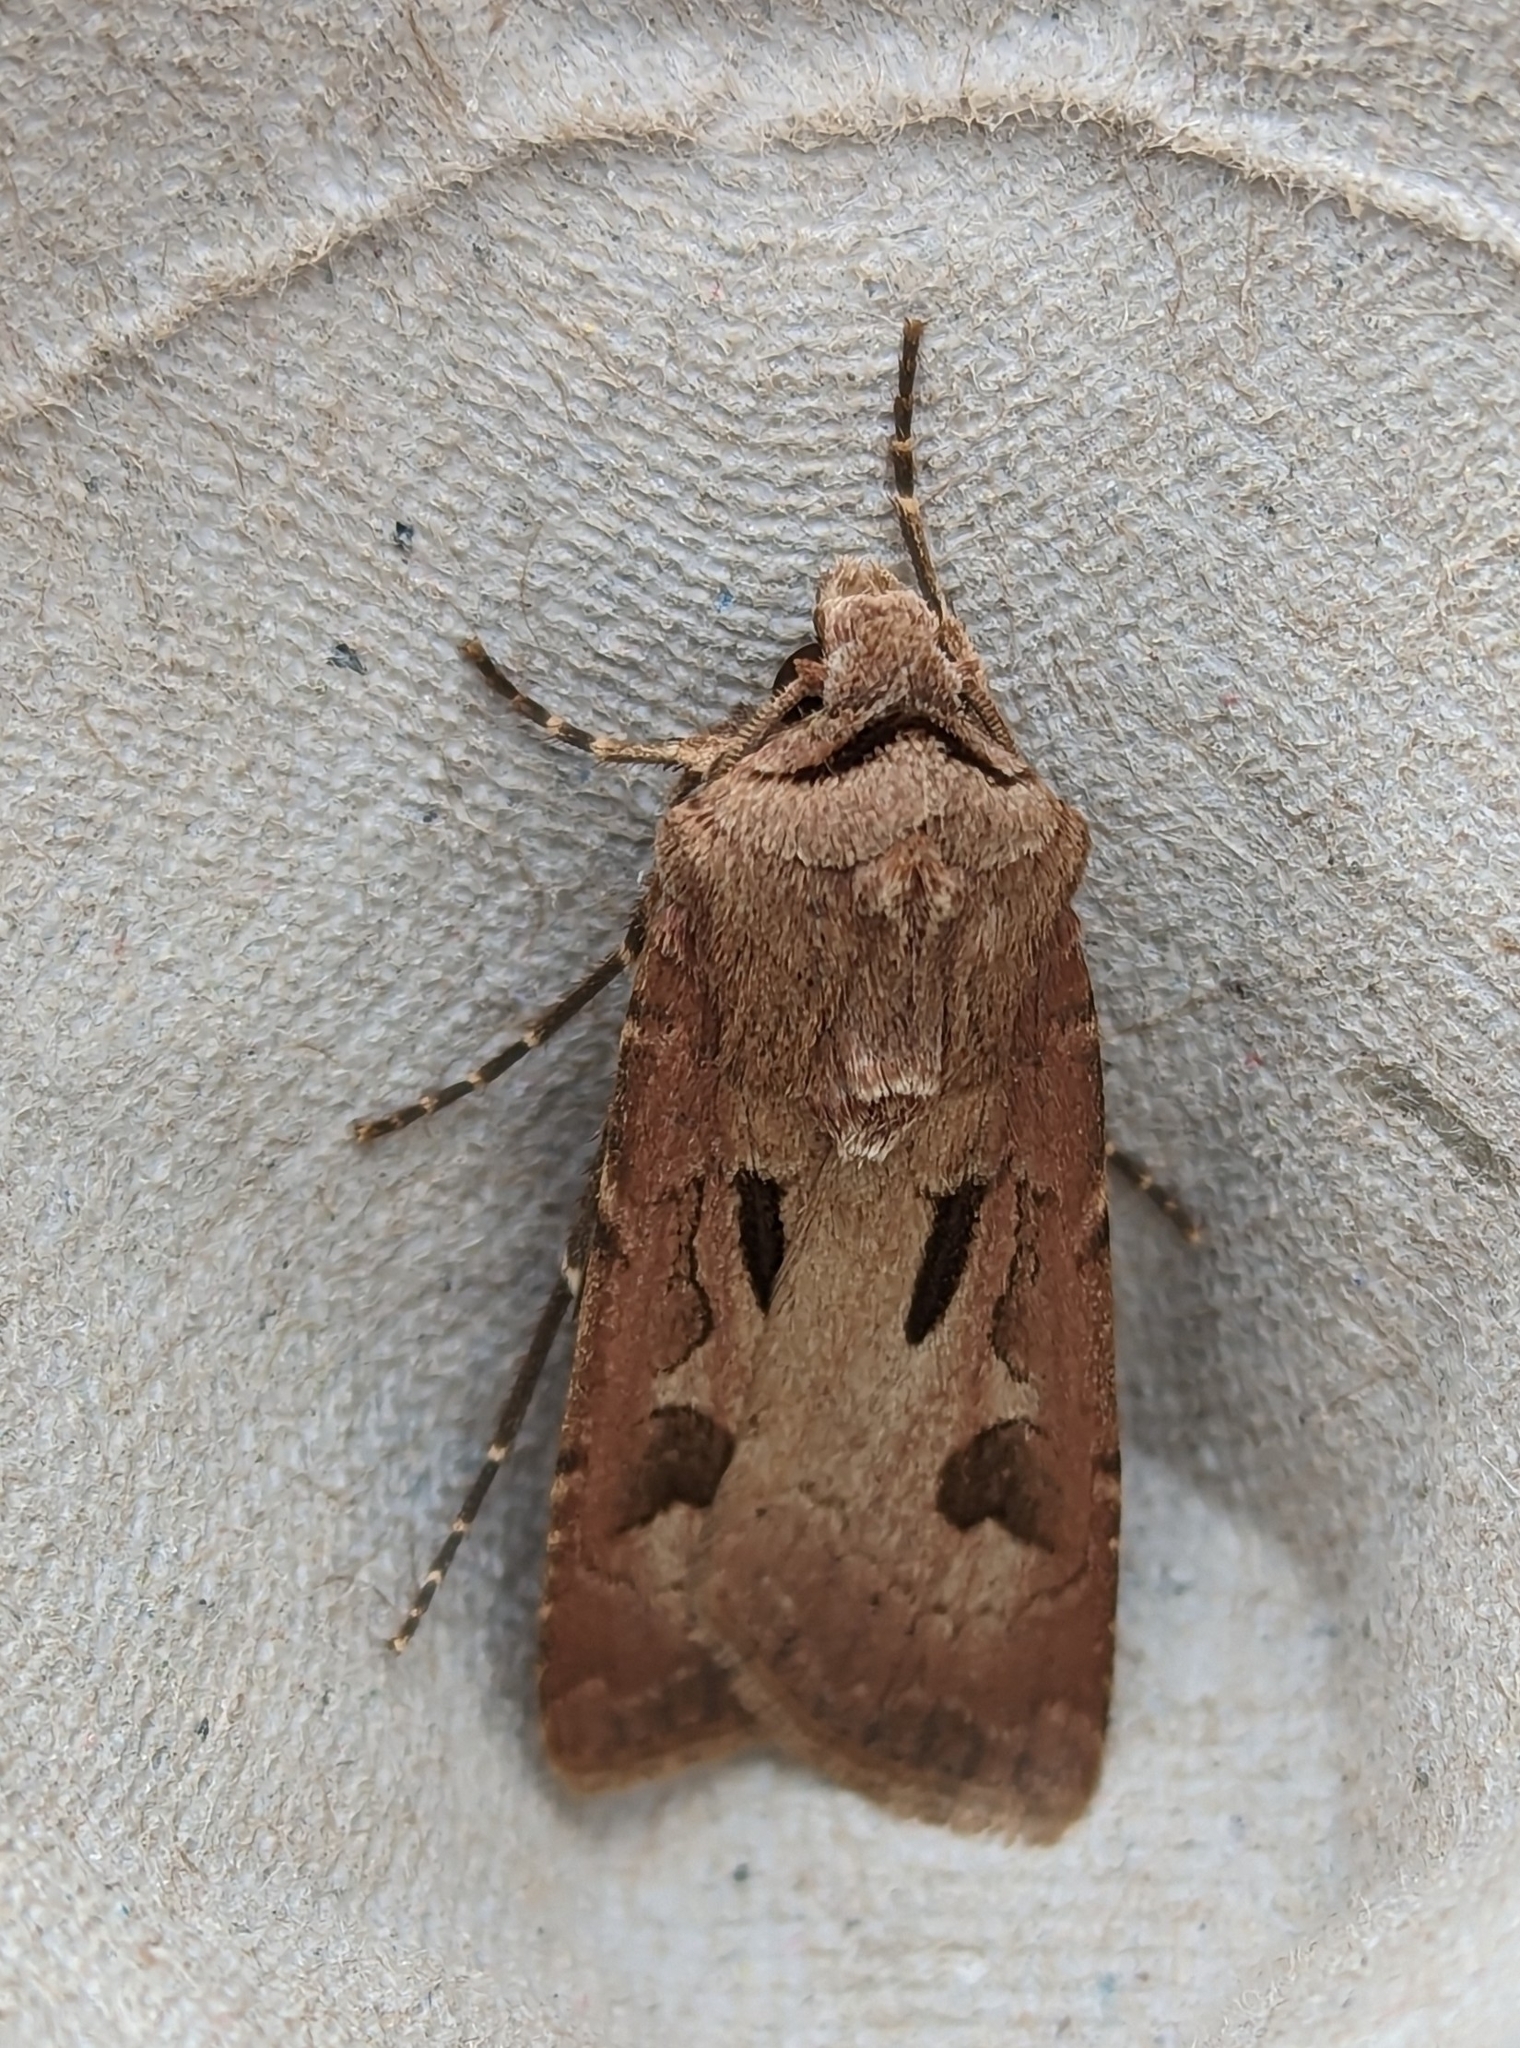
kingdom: Animalia
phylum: Arthropoda
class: Insecta
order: Lepidoptera
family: Noctuidae
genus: Agrotis
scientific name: Agrotis exclamationis
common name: Heart and dart
